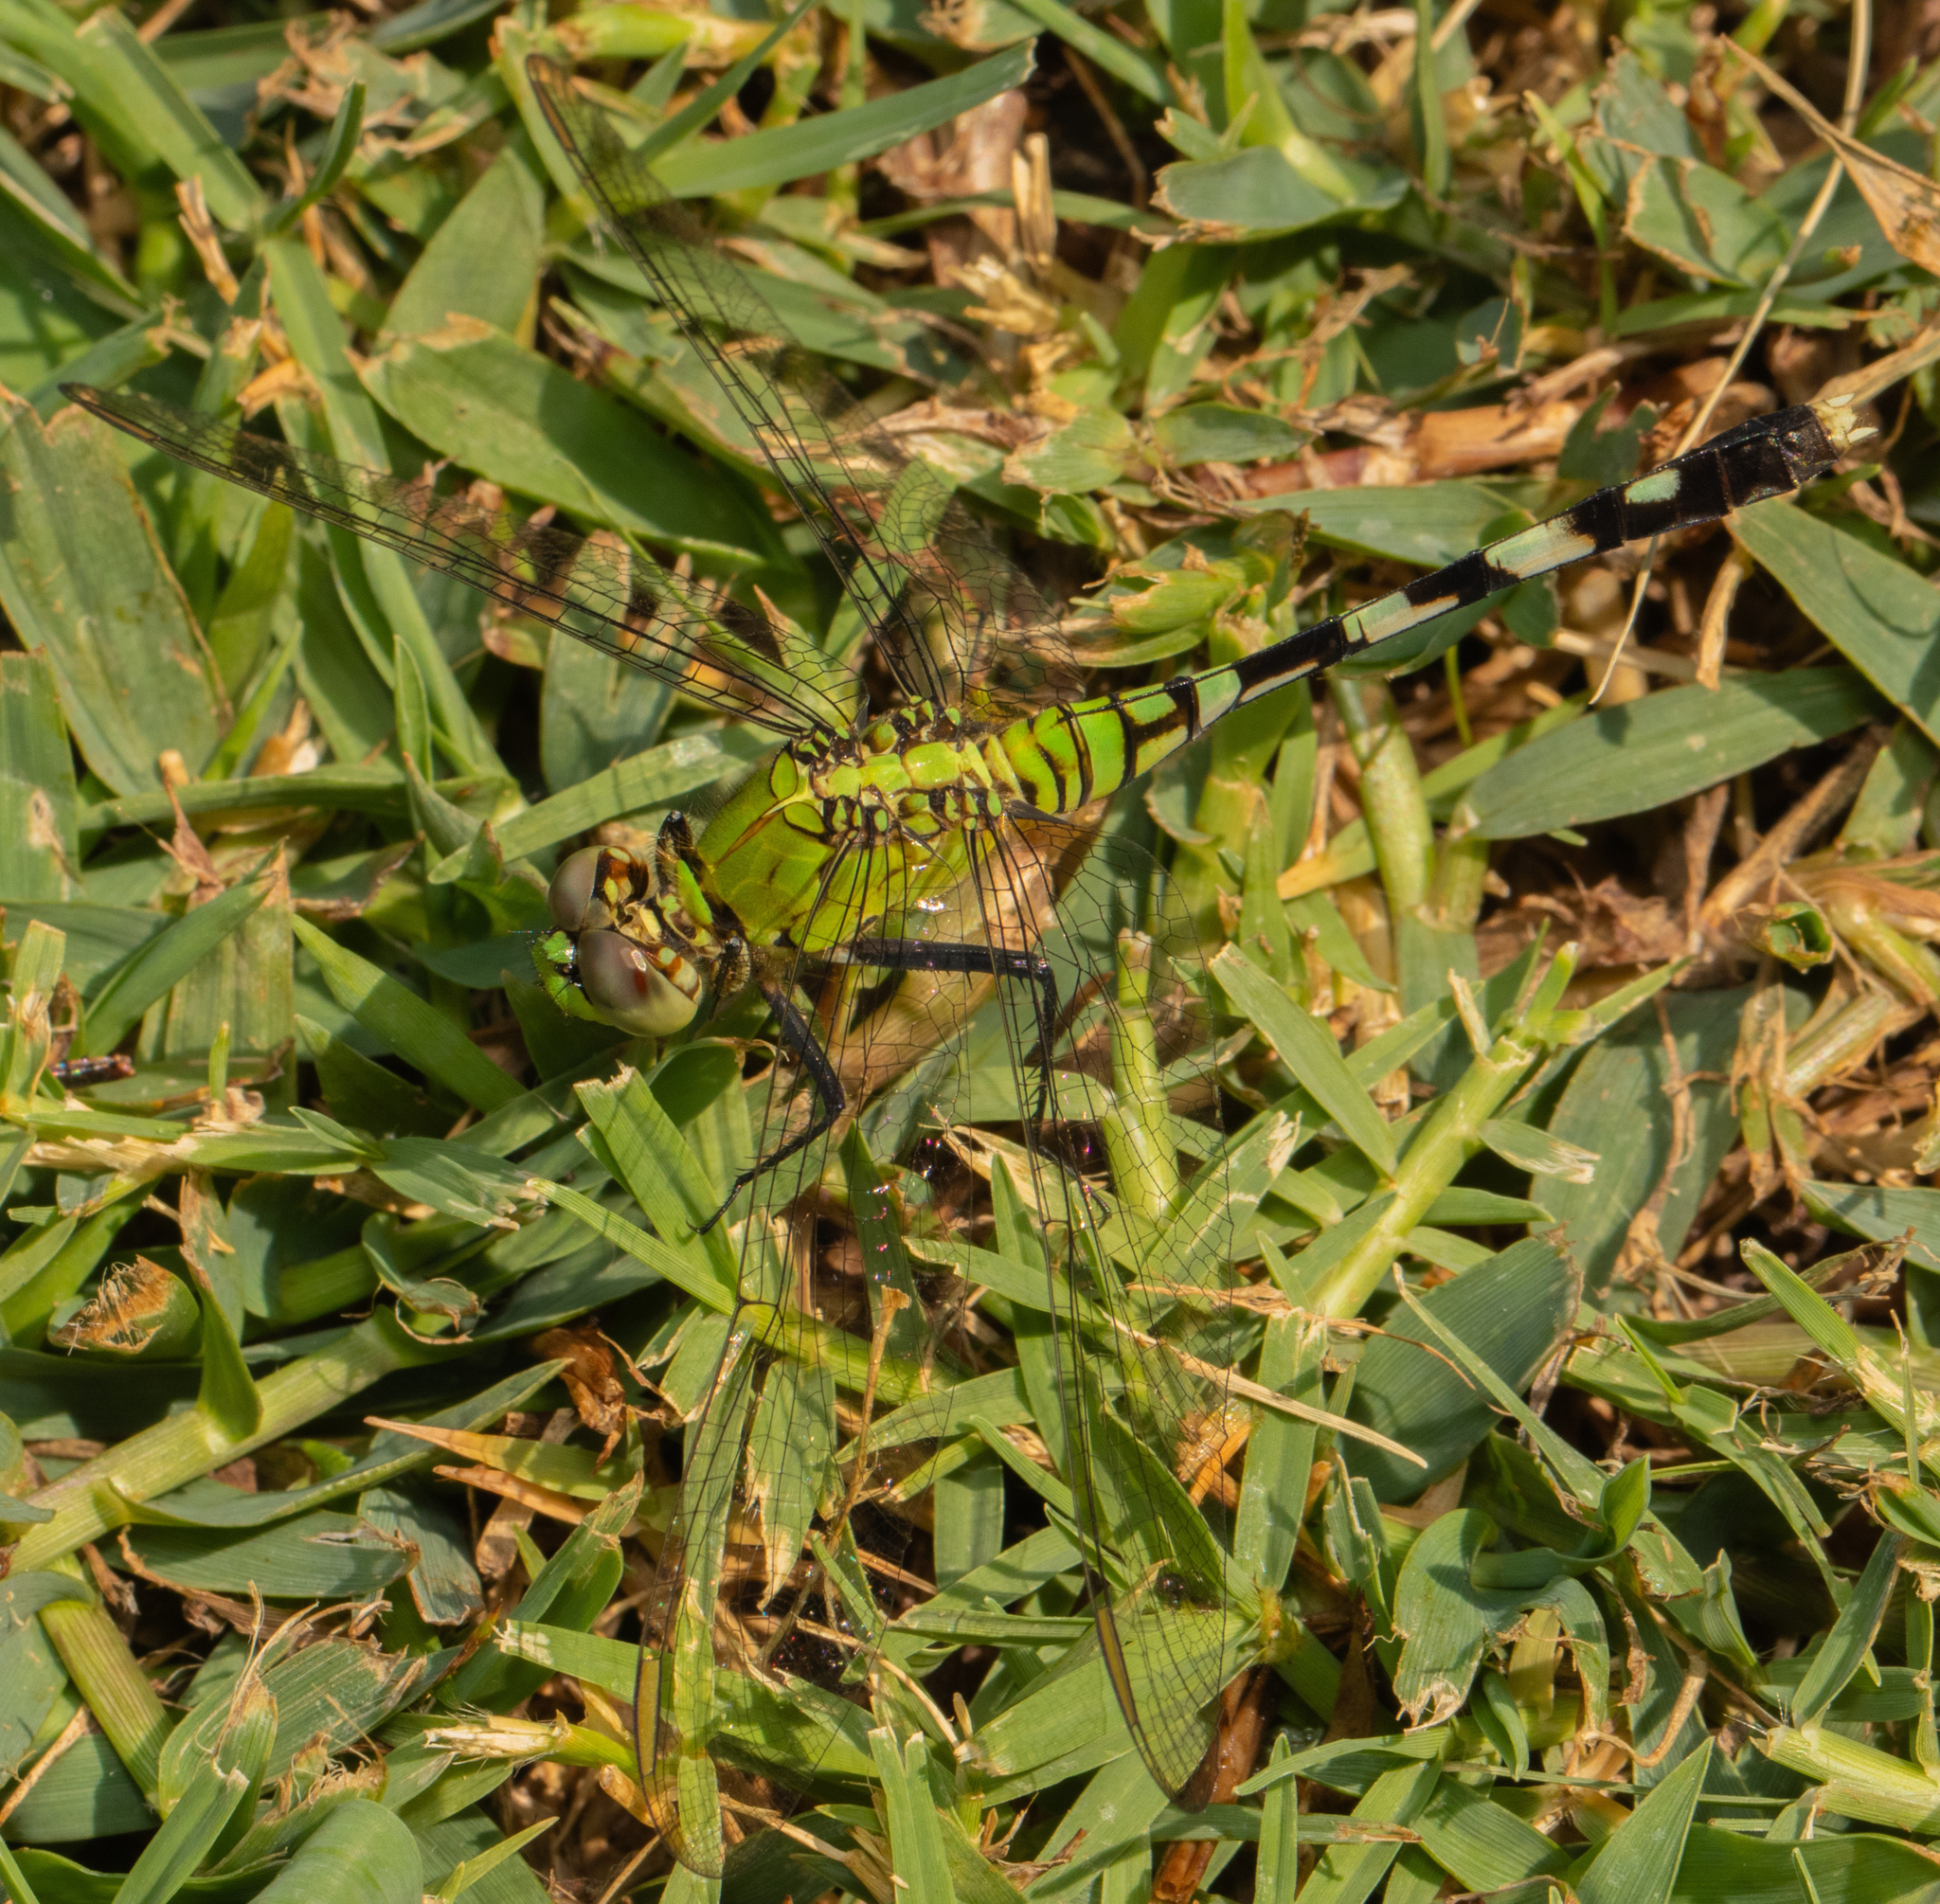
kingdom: Animalia
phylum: Arthropoda
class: Insecta
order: Odonata
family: Libellulidae
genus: Erythemis
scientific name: Erythemis simplicicollis
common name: Eastern pondhawk
